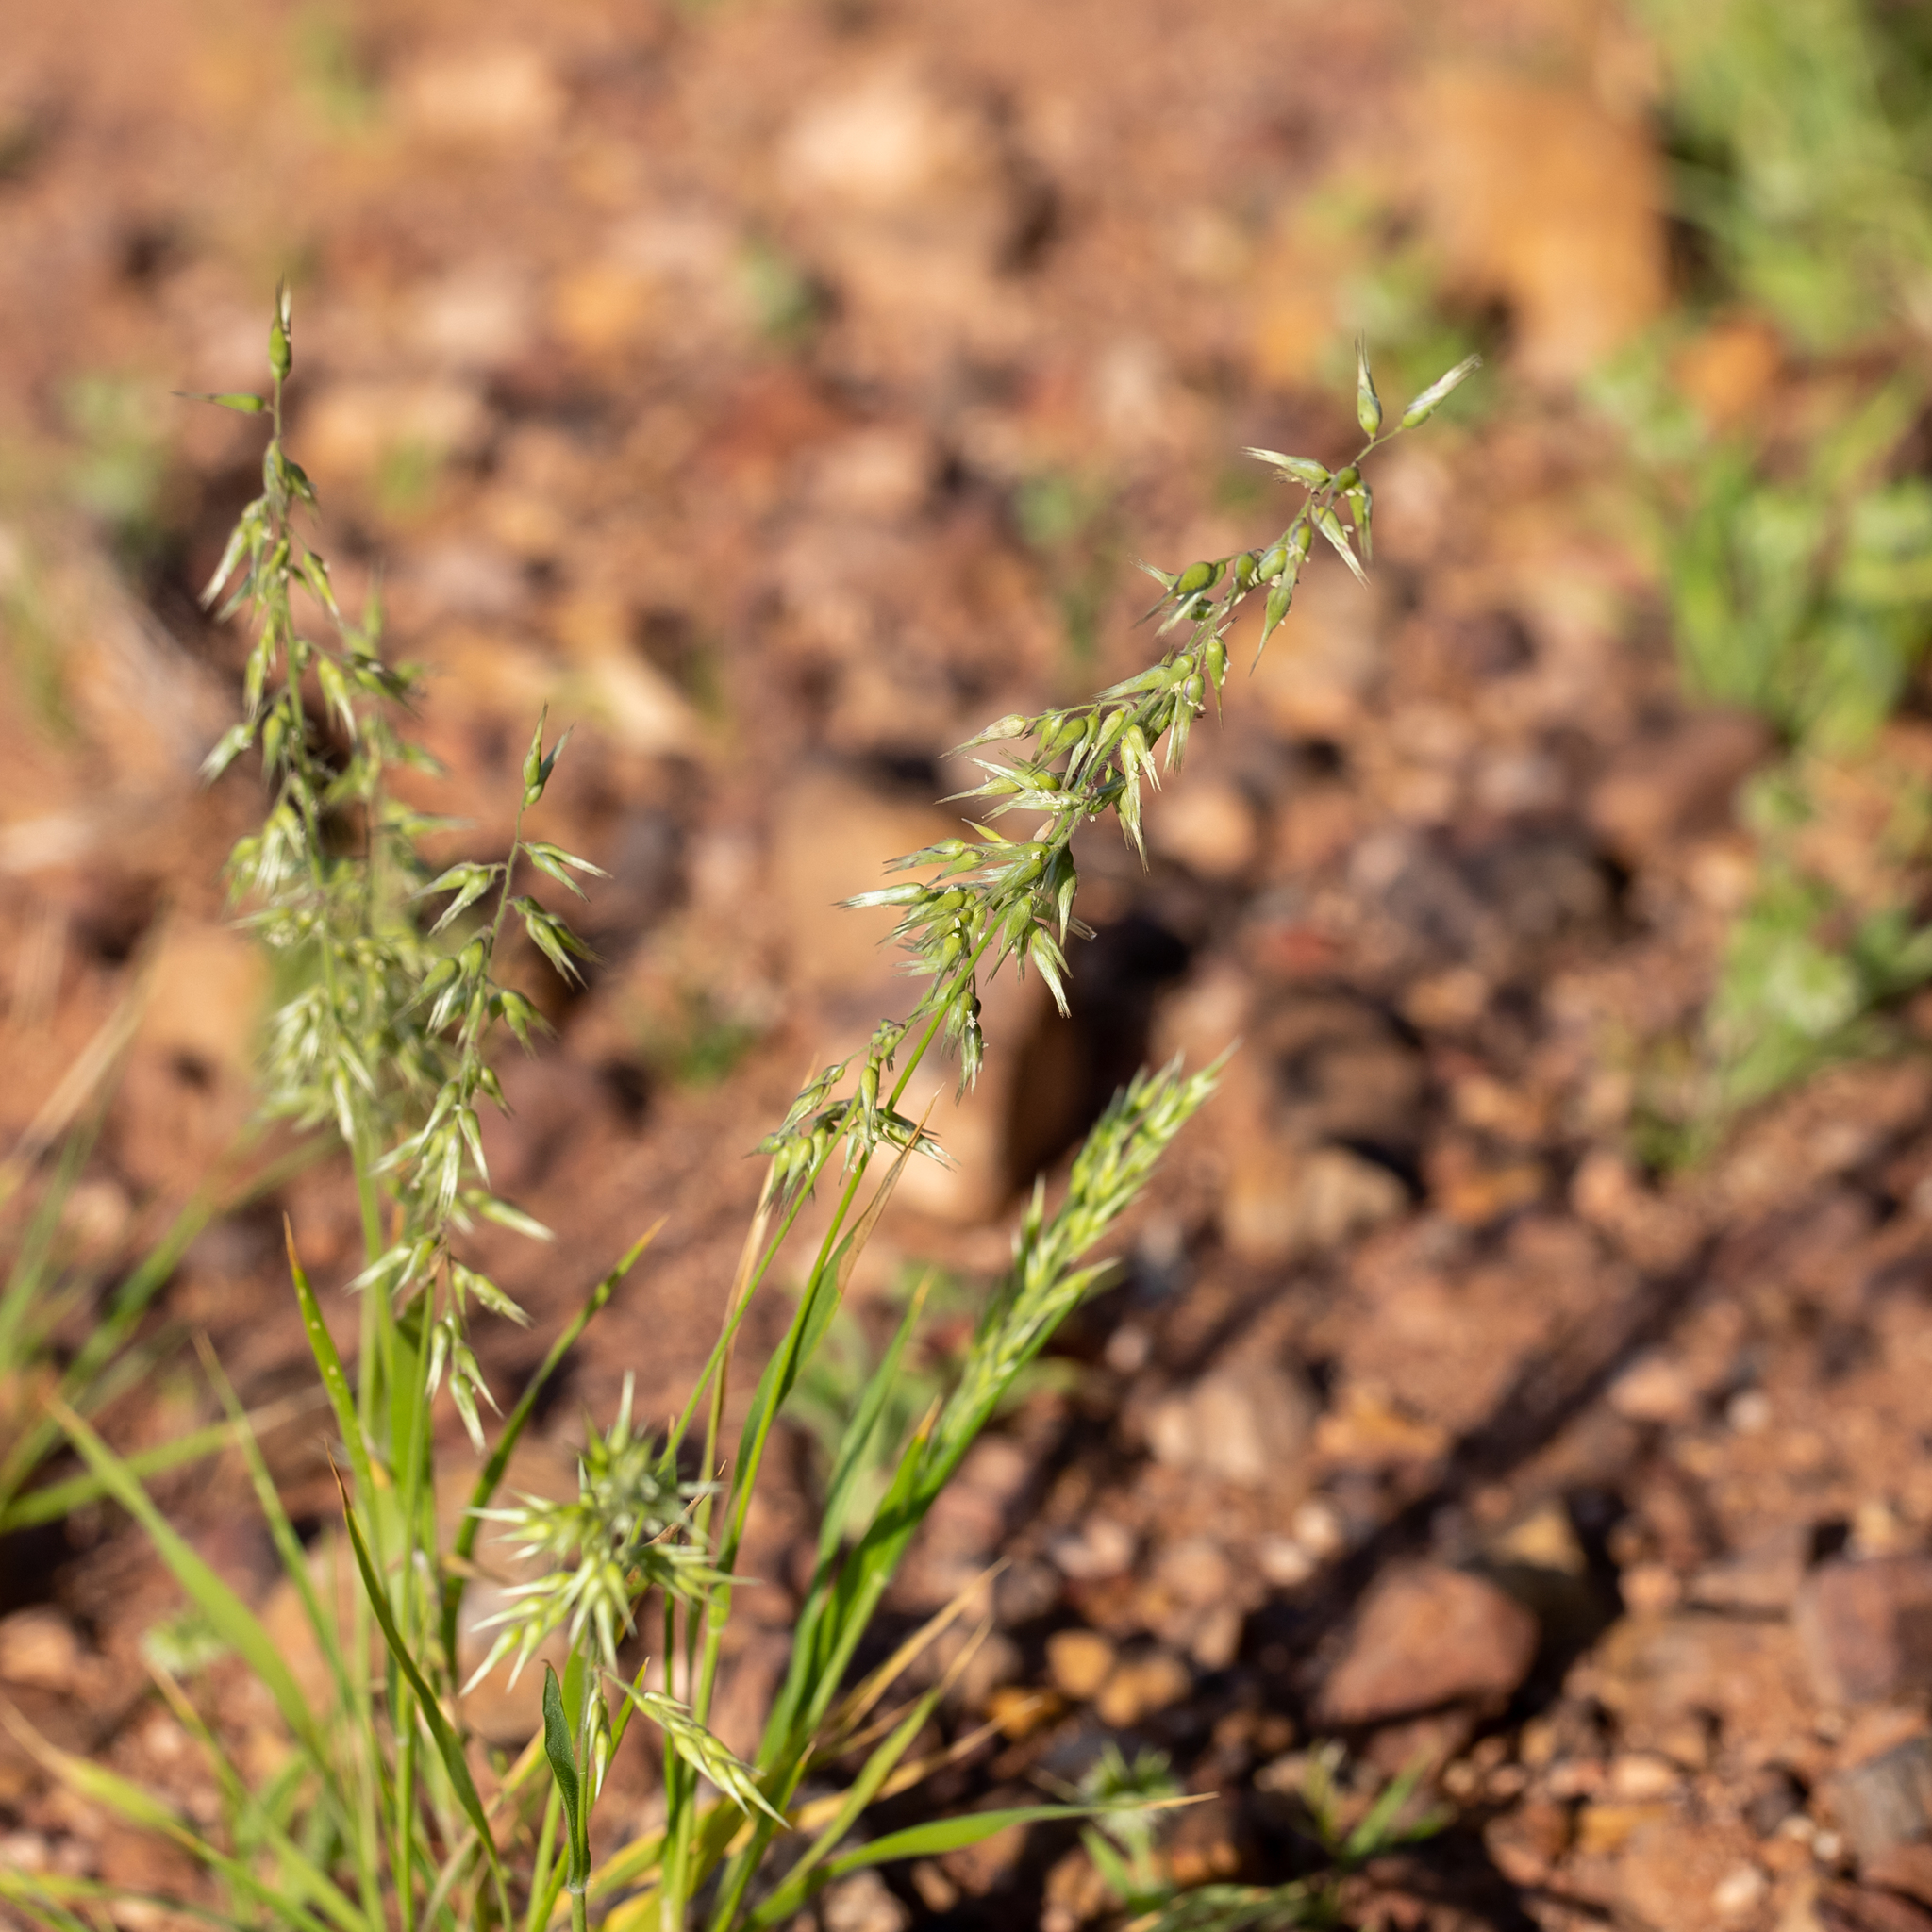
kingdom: Plantae
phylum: Tracheophyta
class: Liliopsida
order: Poales
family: Poaceae
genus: Enneapogon
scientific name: Enneapogon avenaceus
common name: Hairy oat grass
